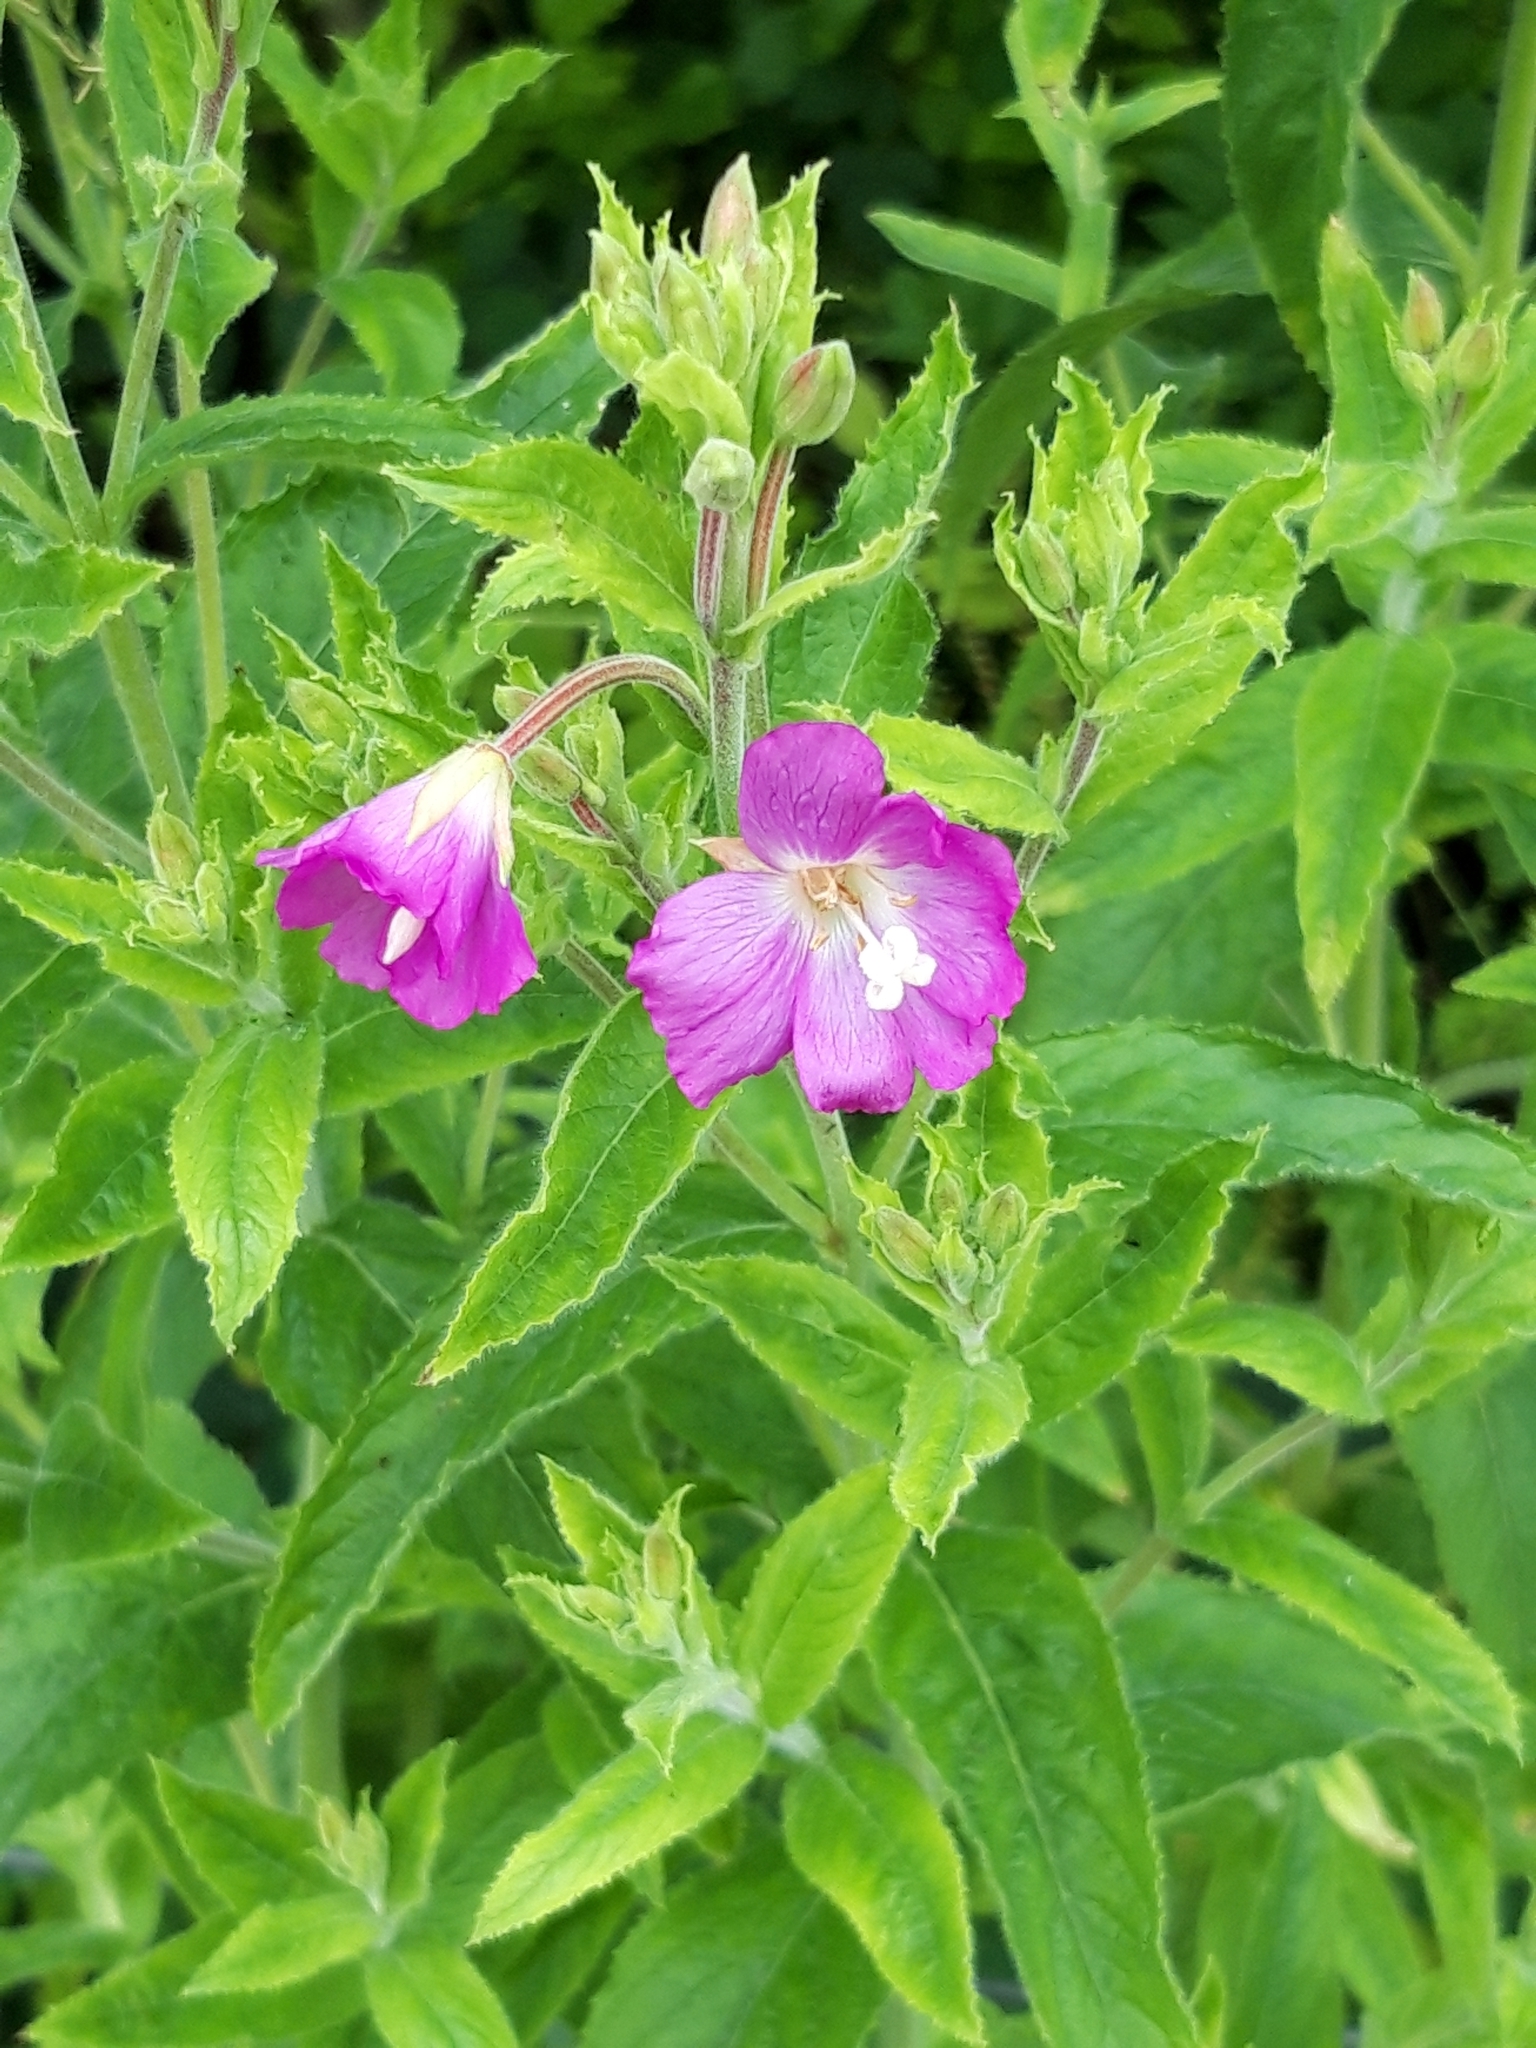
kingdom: Plantae
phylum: Tracheophyta
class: Magnoliopsida
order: Myrtales
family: Onagraceae
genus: Epilobium
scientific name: Epilobium hirsutum
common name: Great willowherb
